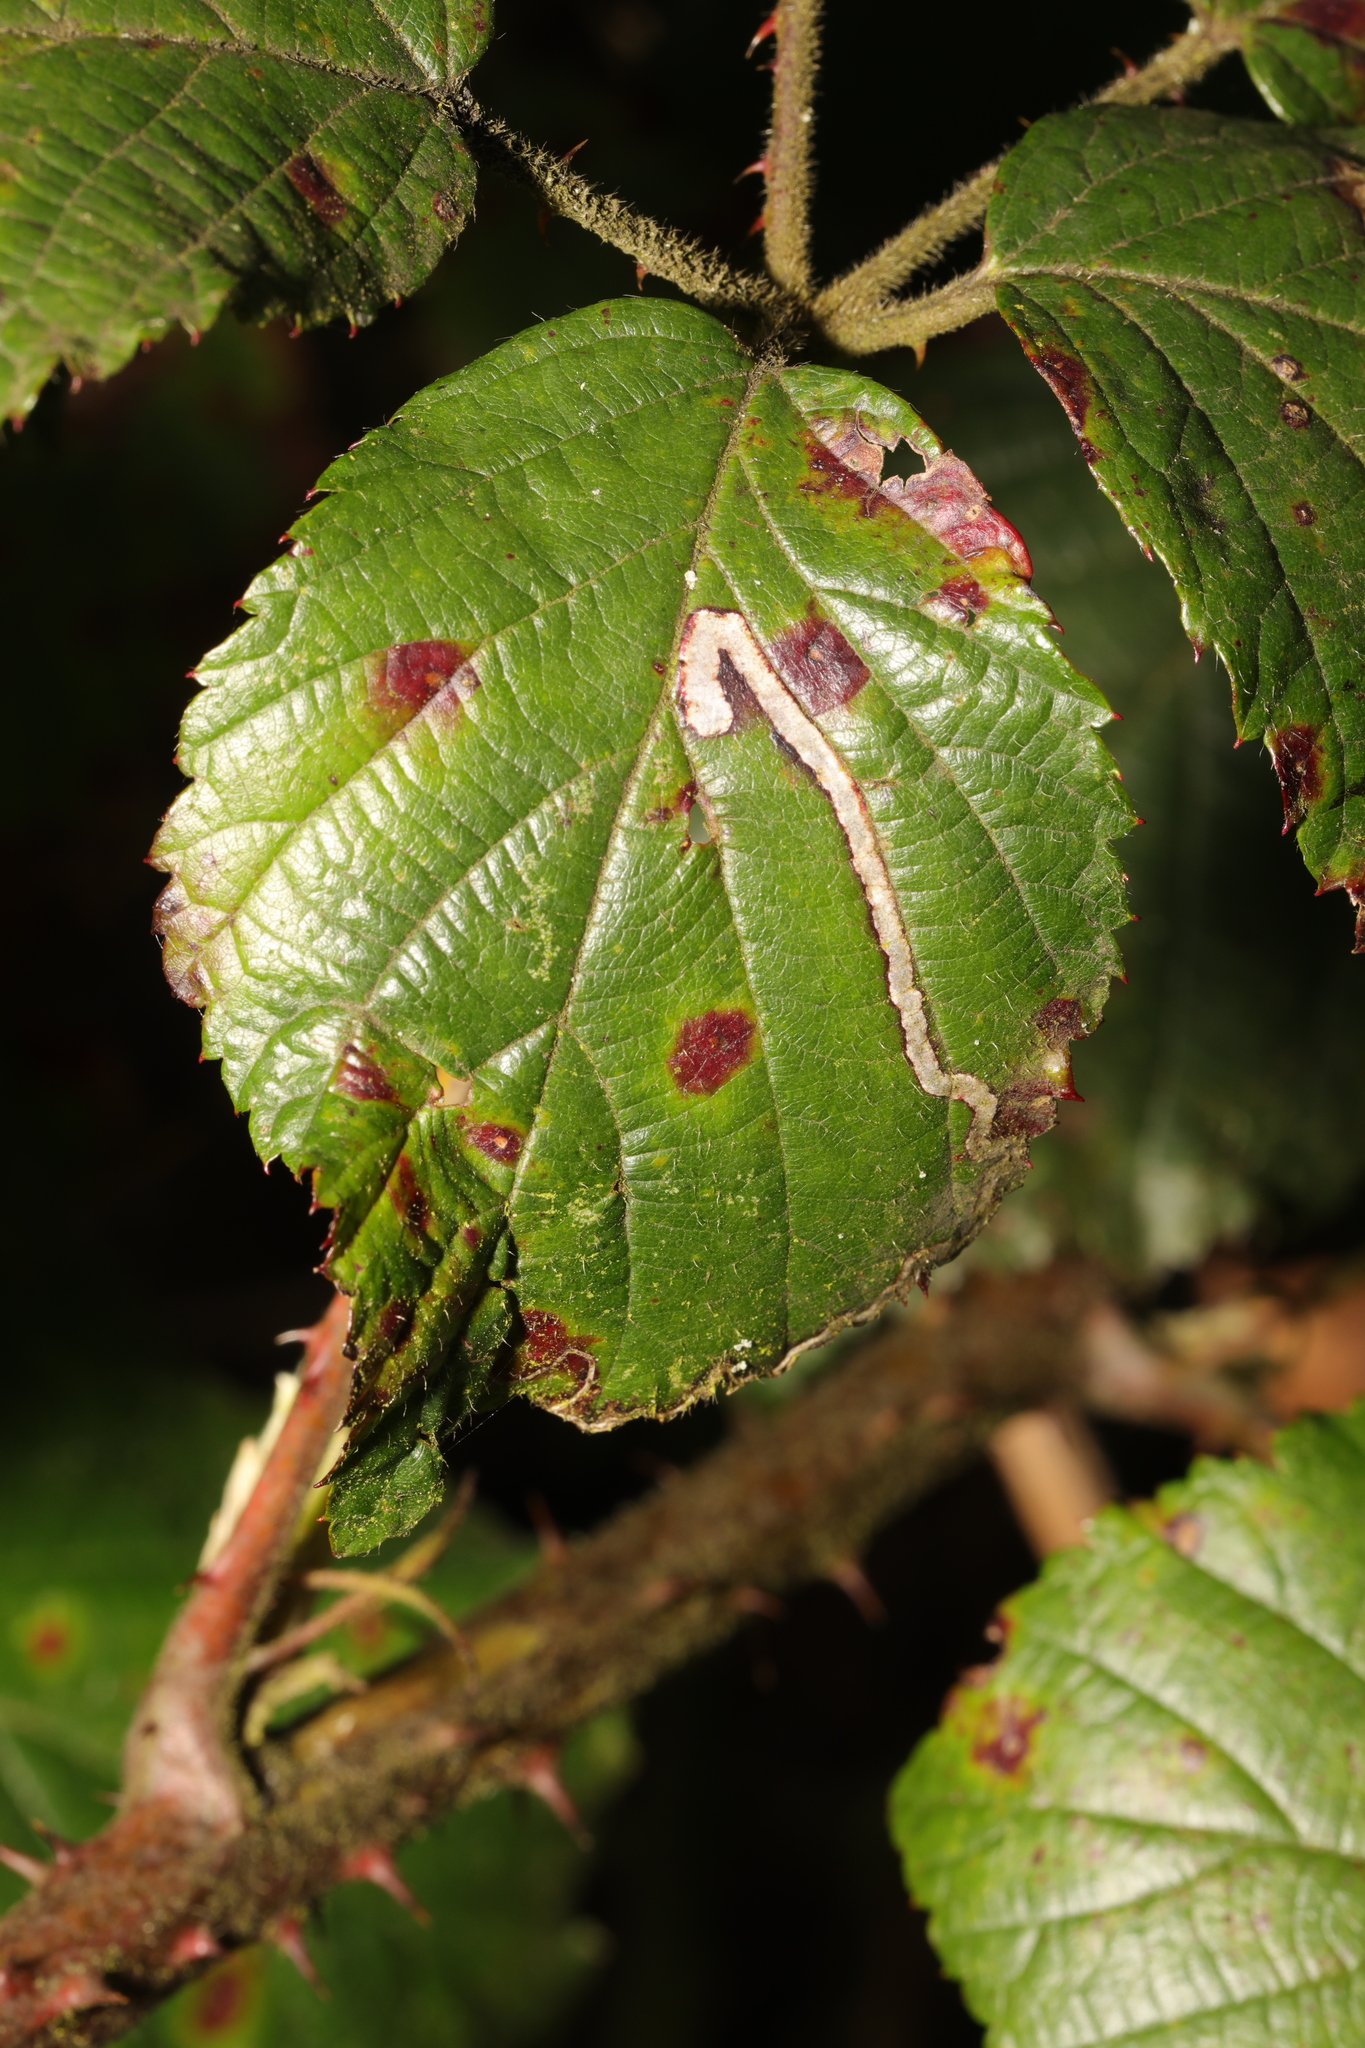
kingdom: Animalia
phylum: Arthropoda
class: Insecta
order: Lepidoptera
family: Nepticulidae
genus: Stigmella
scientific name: Stigmella aurella
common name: Golden pigmy
